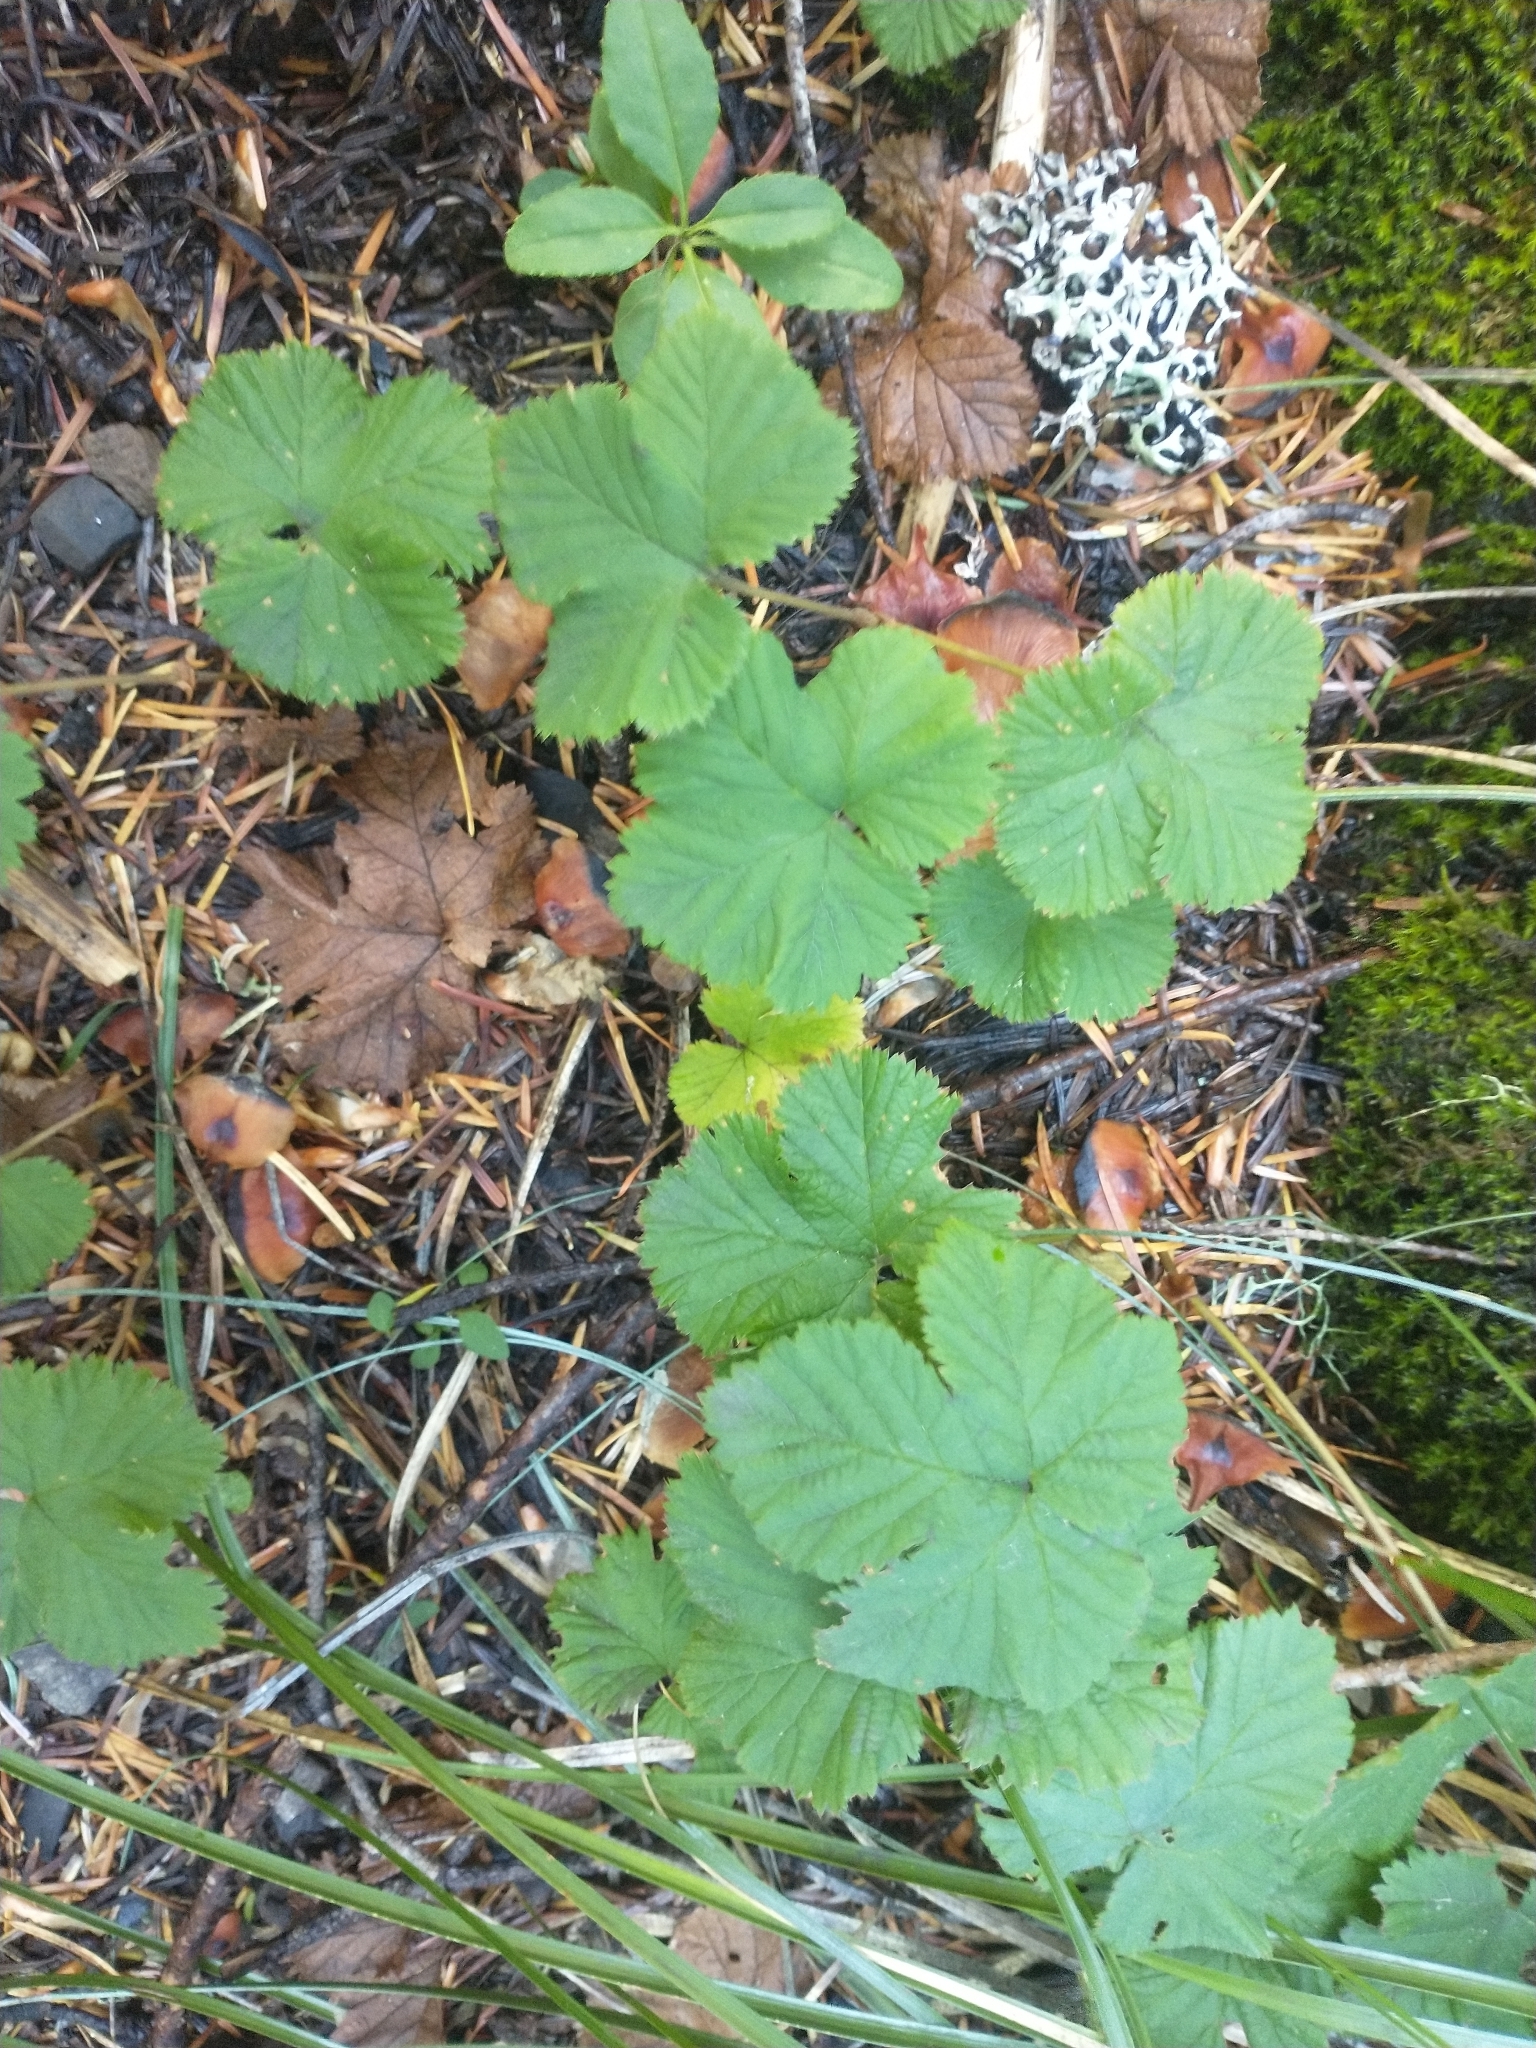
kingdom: Plantae
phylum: Tracheophyta
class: Magnoliopsida
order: Rosales
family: Rosaceae
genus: Rubus
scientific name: Rubus lasiococcus
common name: Dwarf bramble
